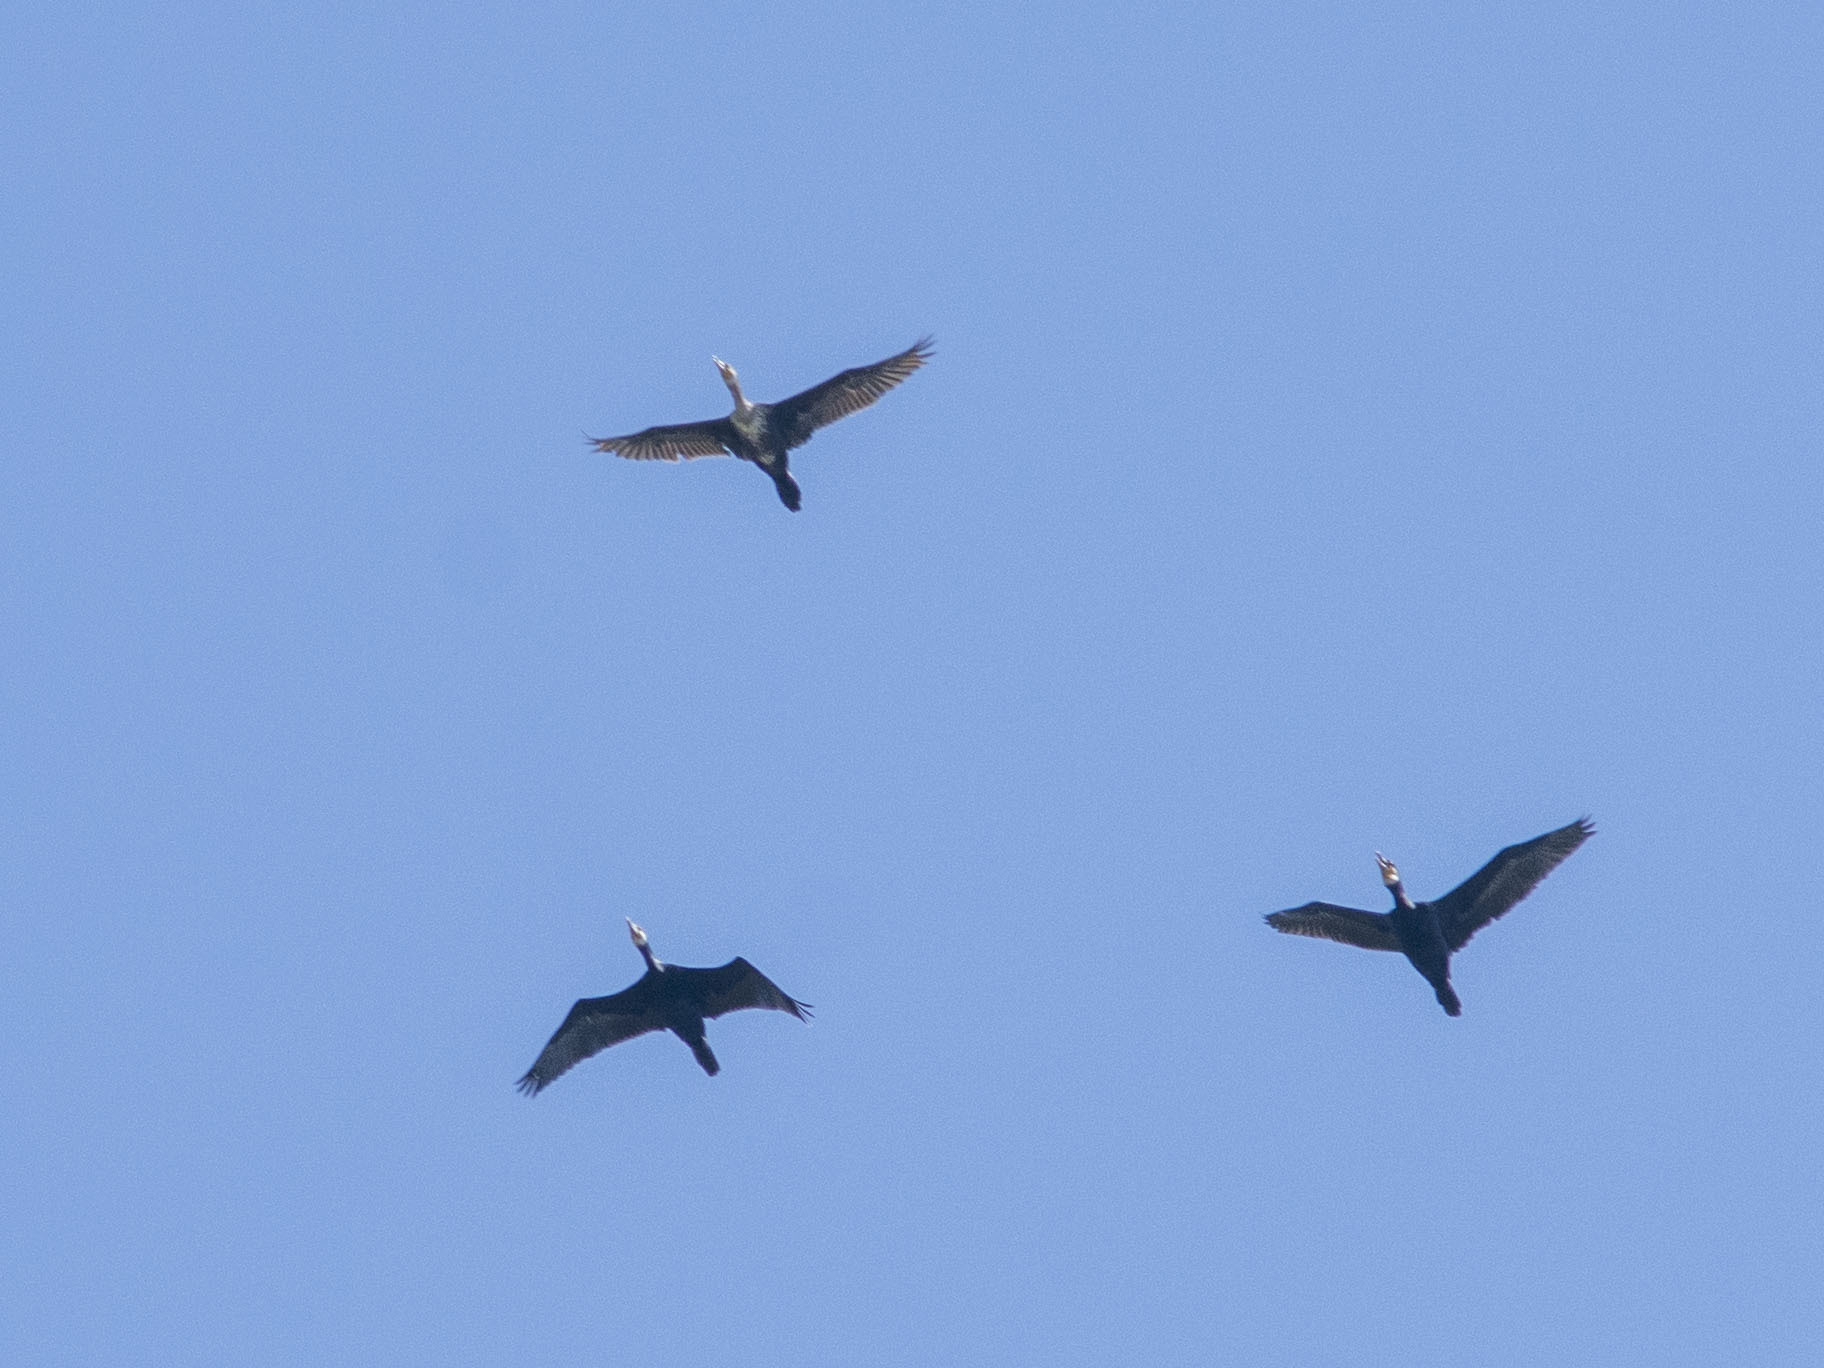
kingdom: Animalia
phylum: Chordata
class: Aves
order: Suliformes
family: Phalacrocoracidae
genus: Phalacrocorax
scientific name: Phalacrocorax carbo
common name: Great cormorant
